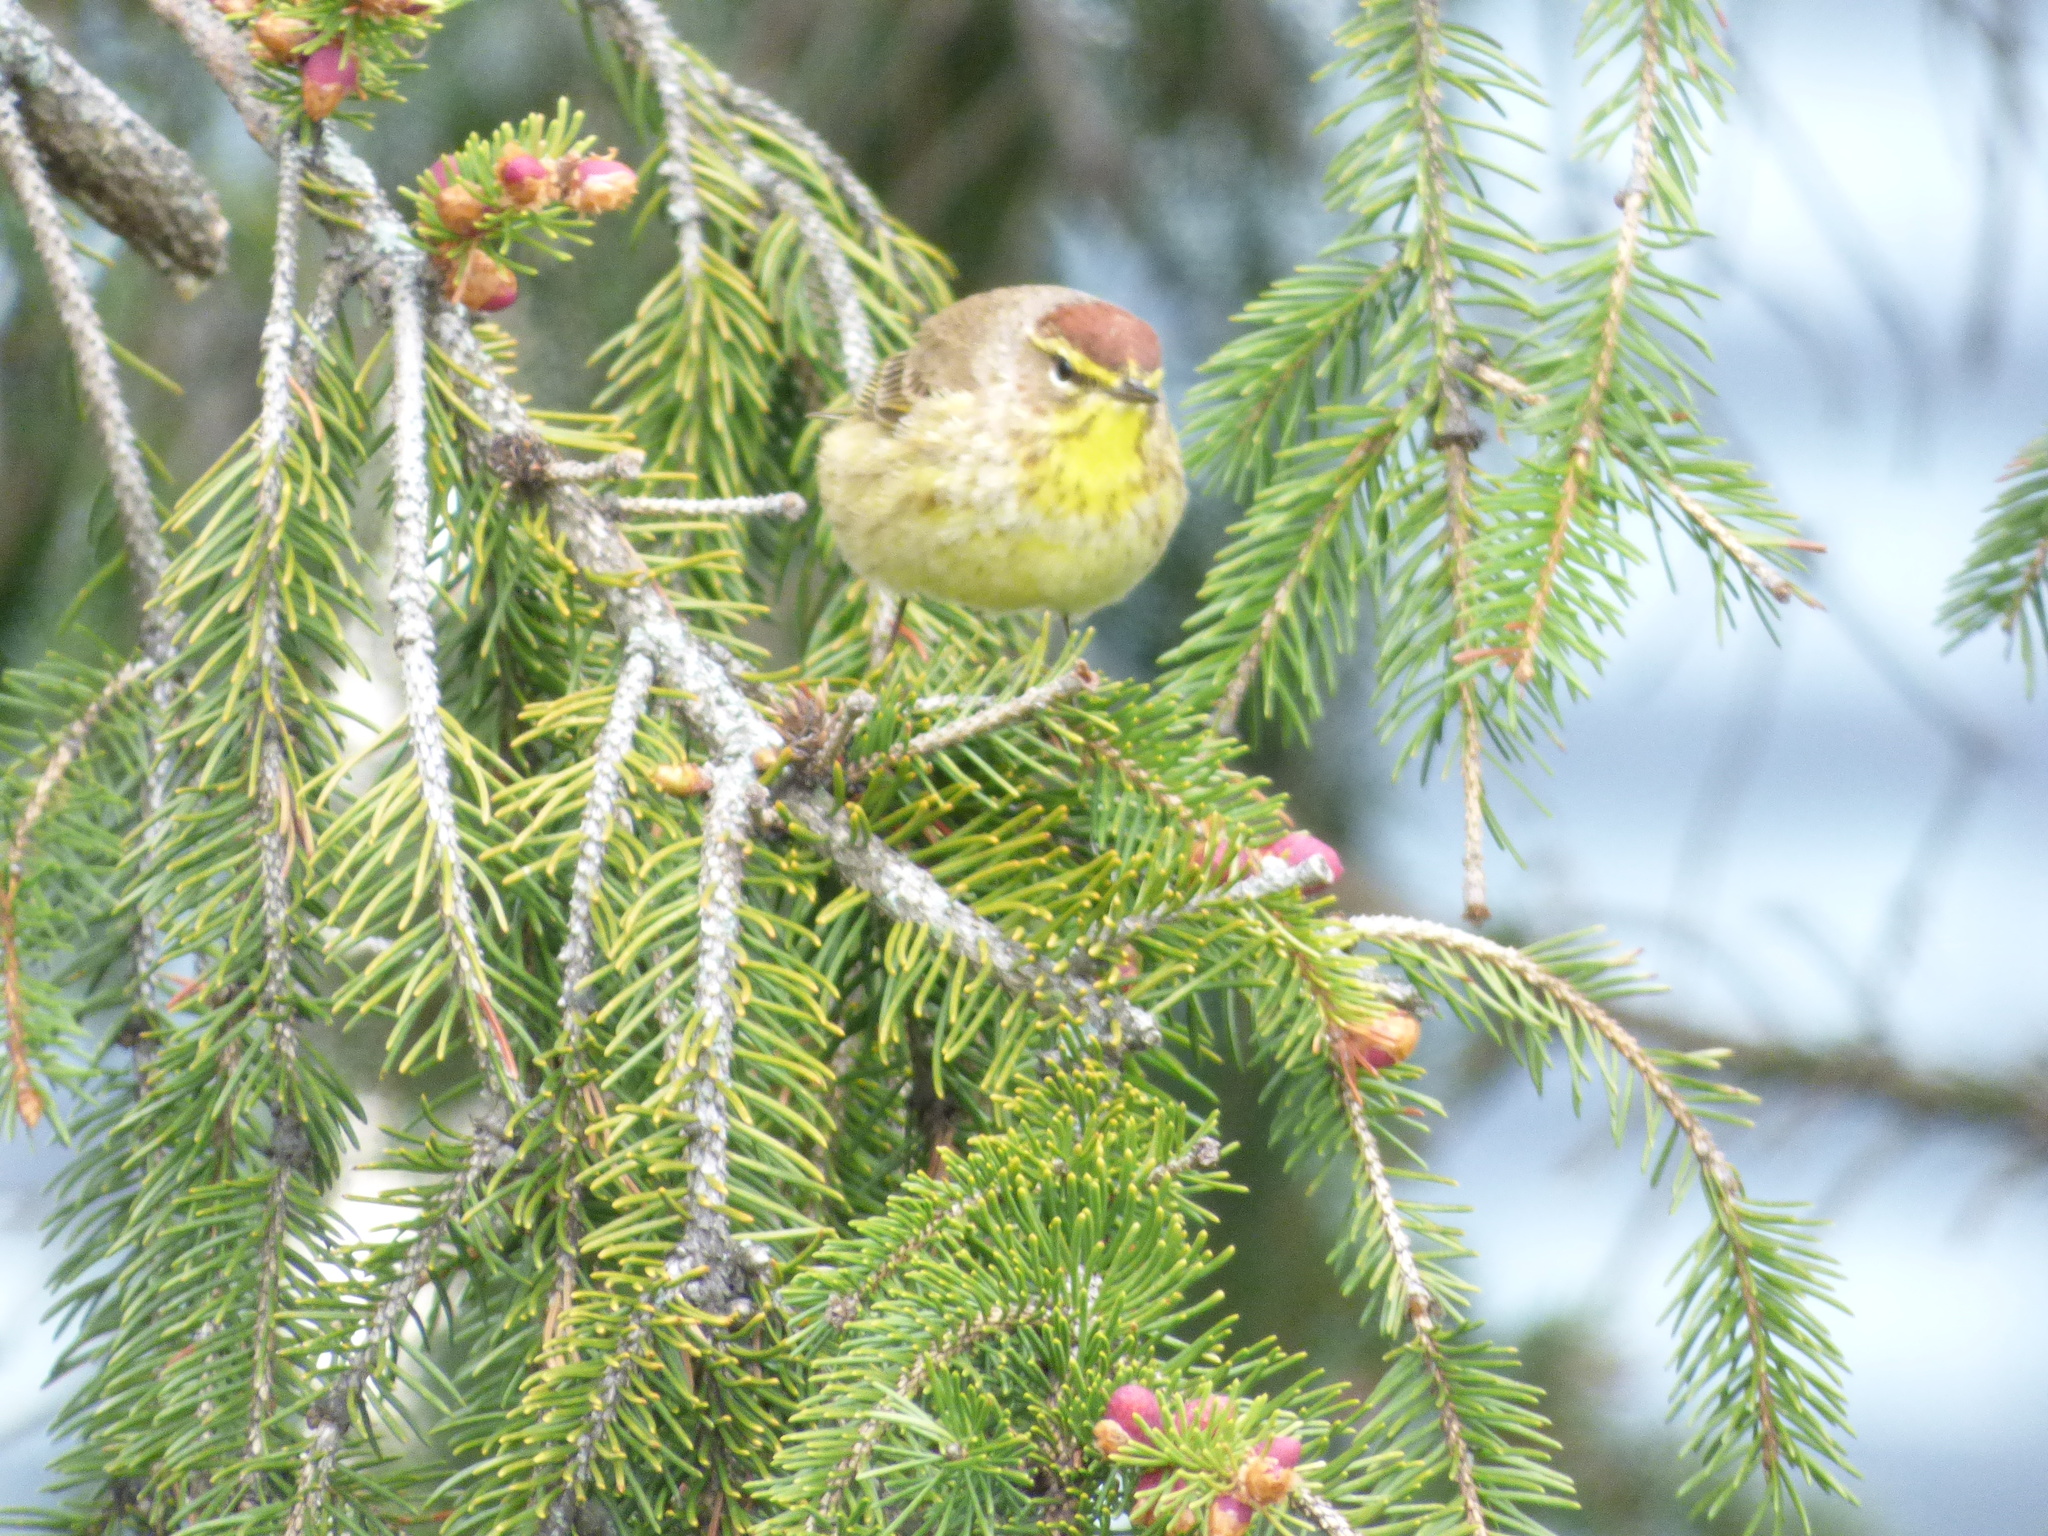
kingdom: Animalia
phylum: Chordata
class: Aves
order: Passeriformes
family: Parulidae
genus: Setophaga
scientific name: Setophaga palmarum
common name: Palm warbler
